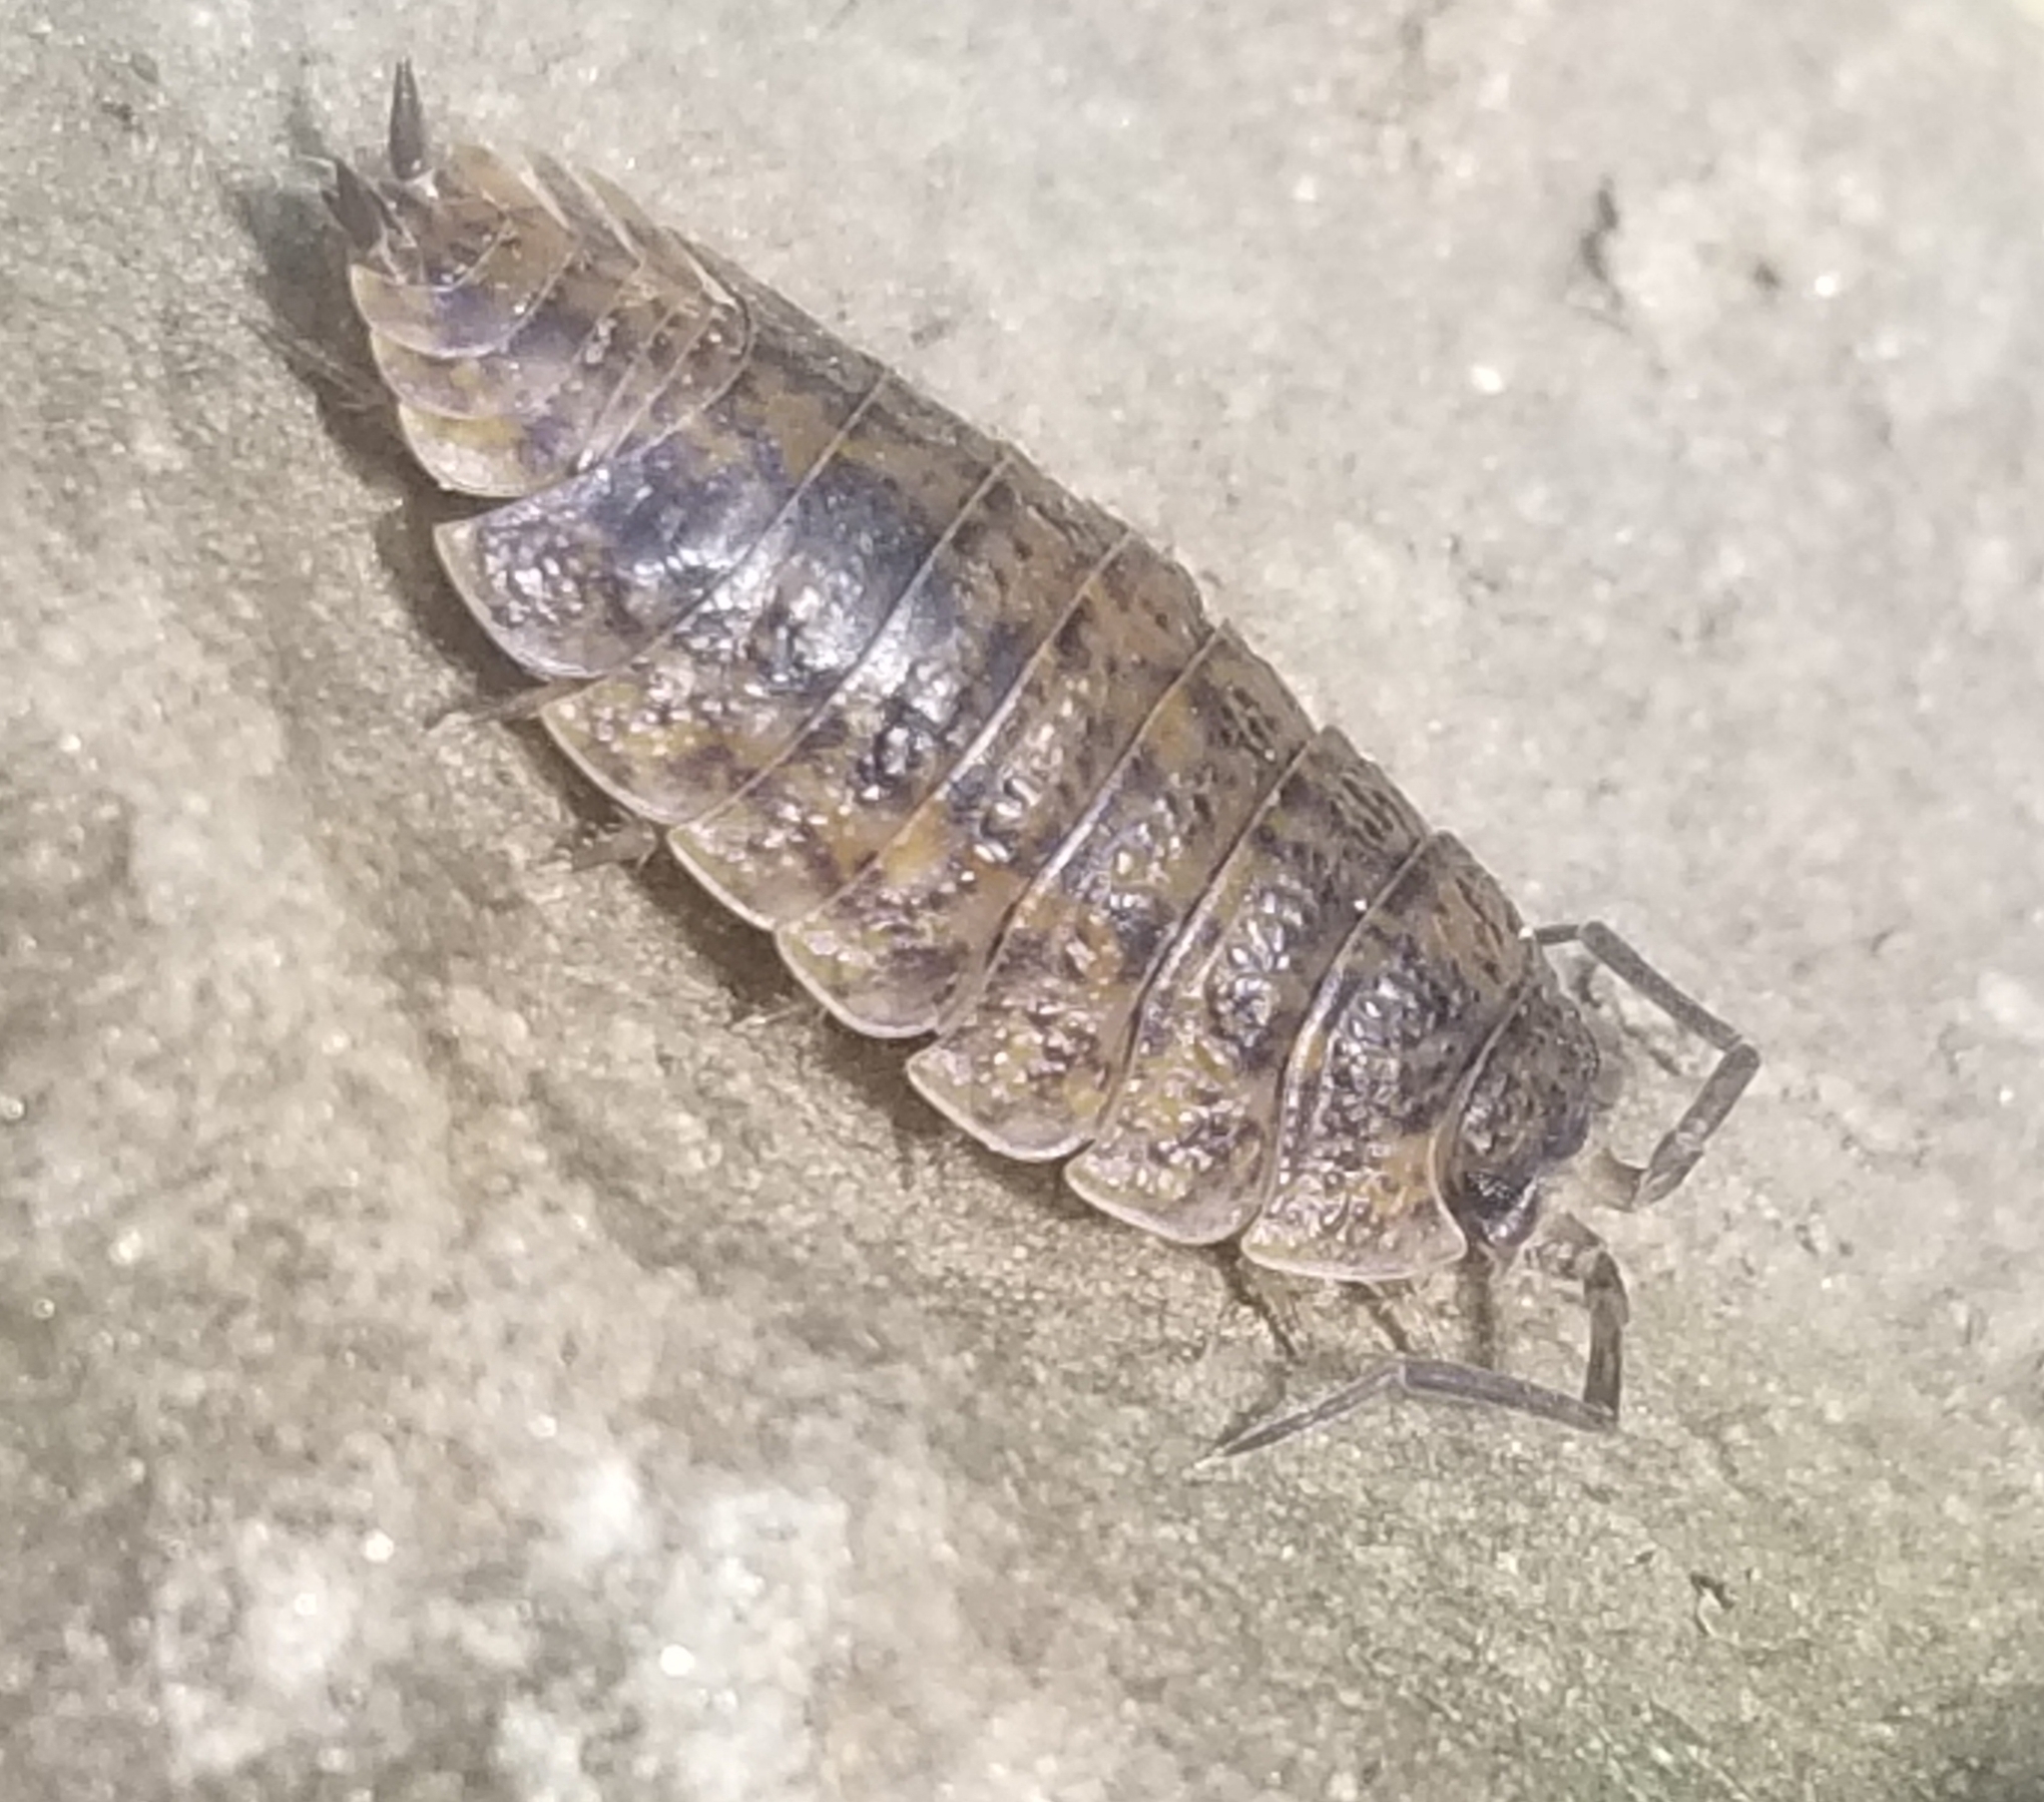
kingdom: Animalia
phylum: Arthropoda
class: Malacostraca
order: Isopoda
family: Trachelipodidae
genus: Trachelipus
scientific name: Trachelipus rathkii
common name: Isopod
